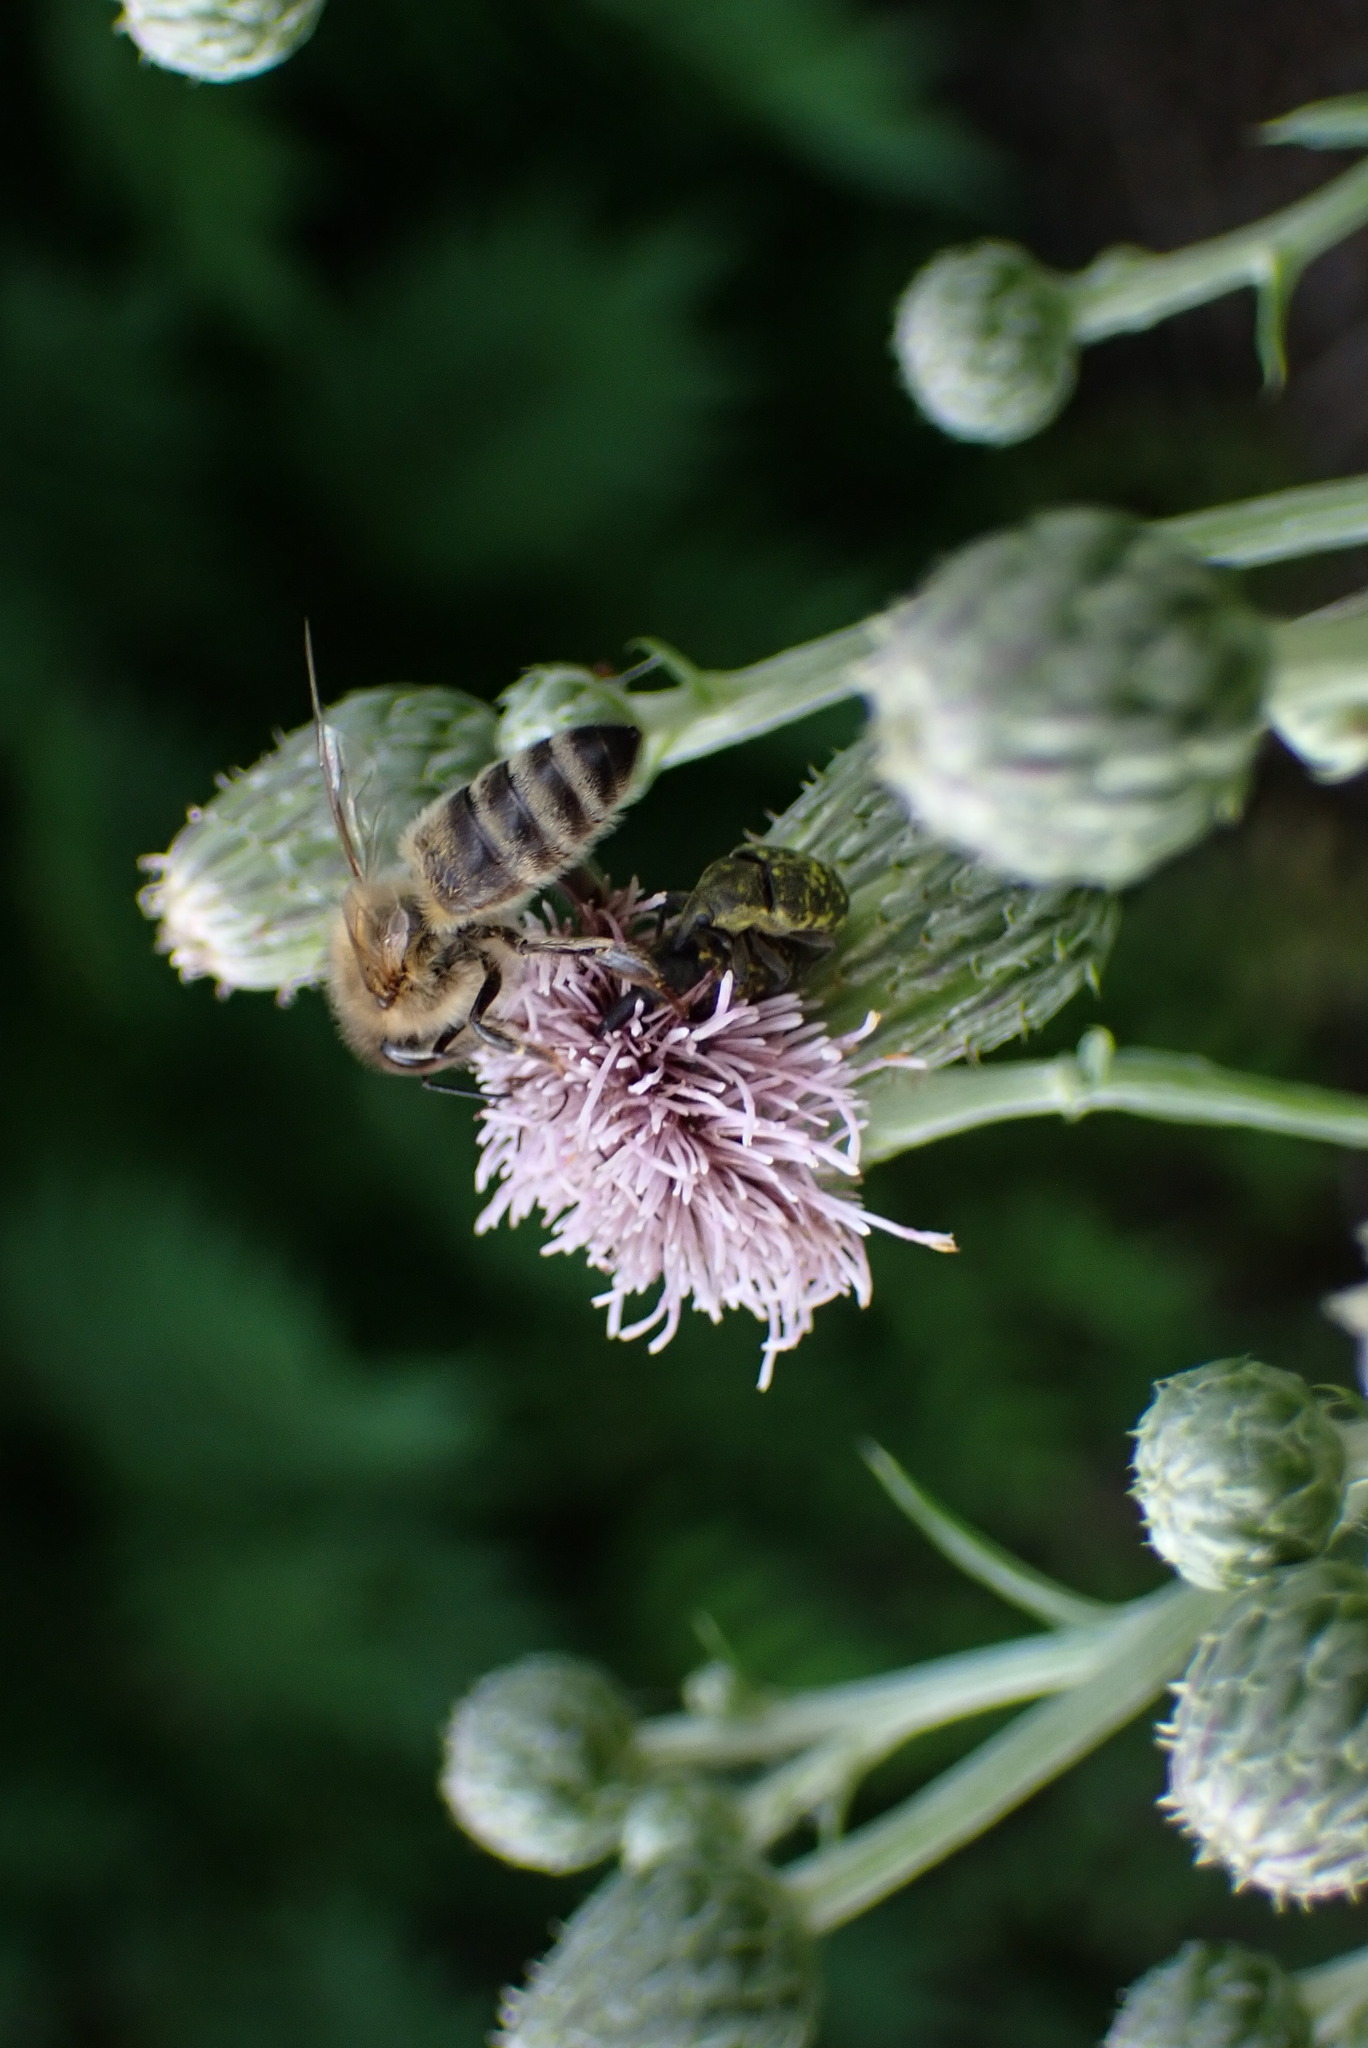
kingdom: Animalia
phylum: Arthropoda
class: Insecta
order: Hymenoptera
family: Apidae
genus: Apis
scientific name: Apis mellifera
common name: Honey bee
